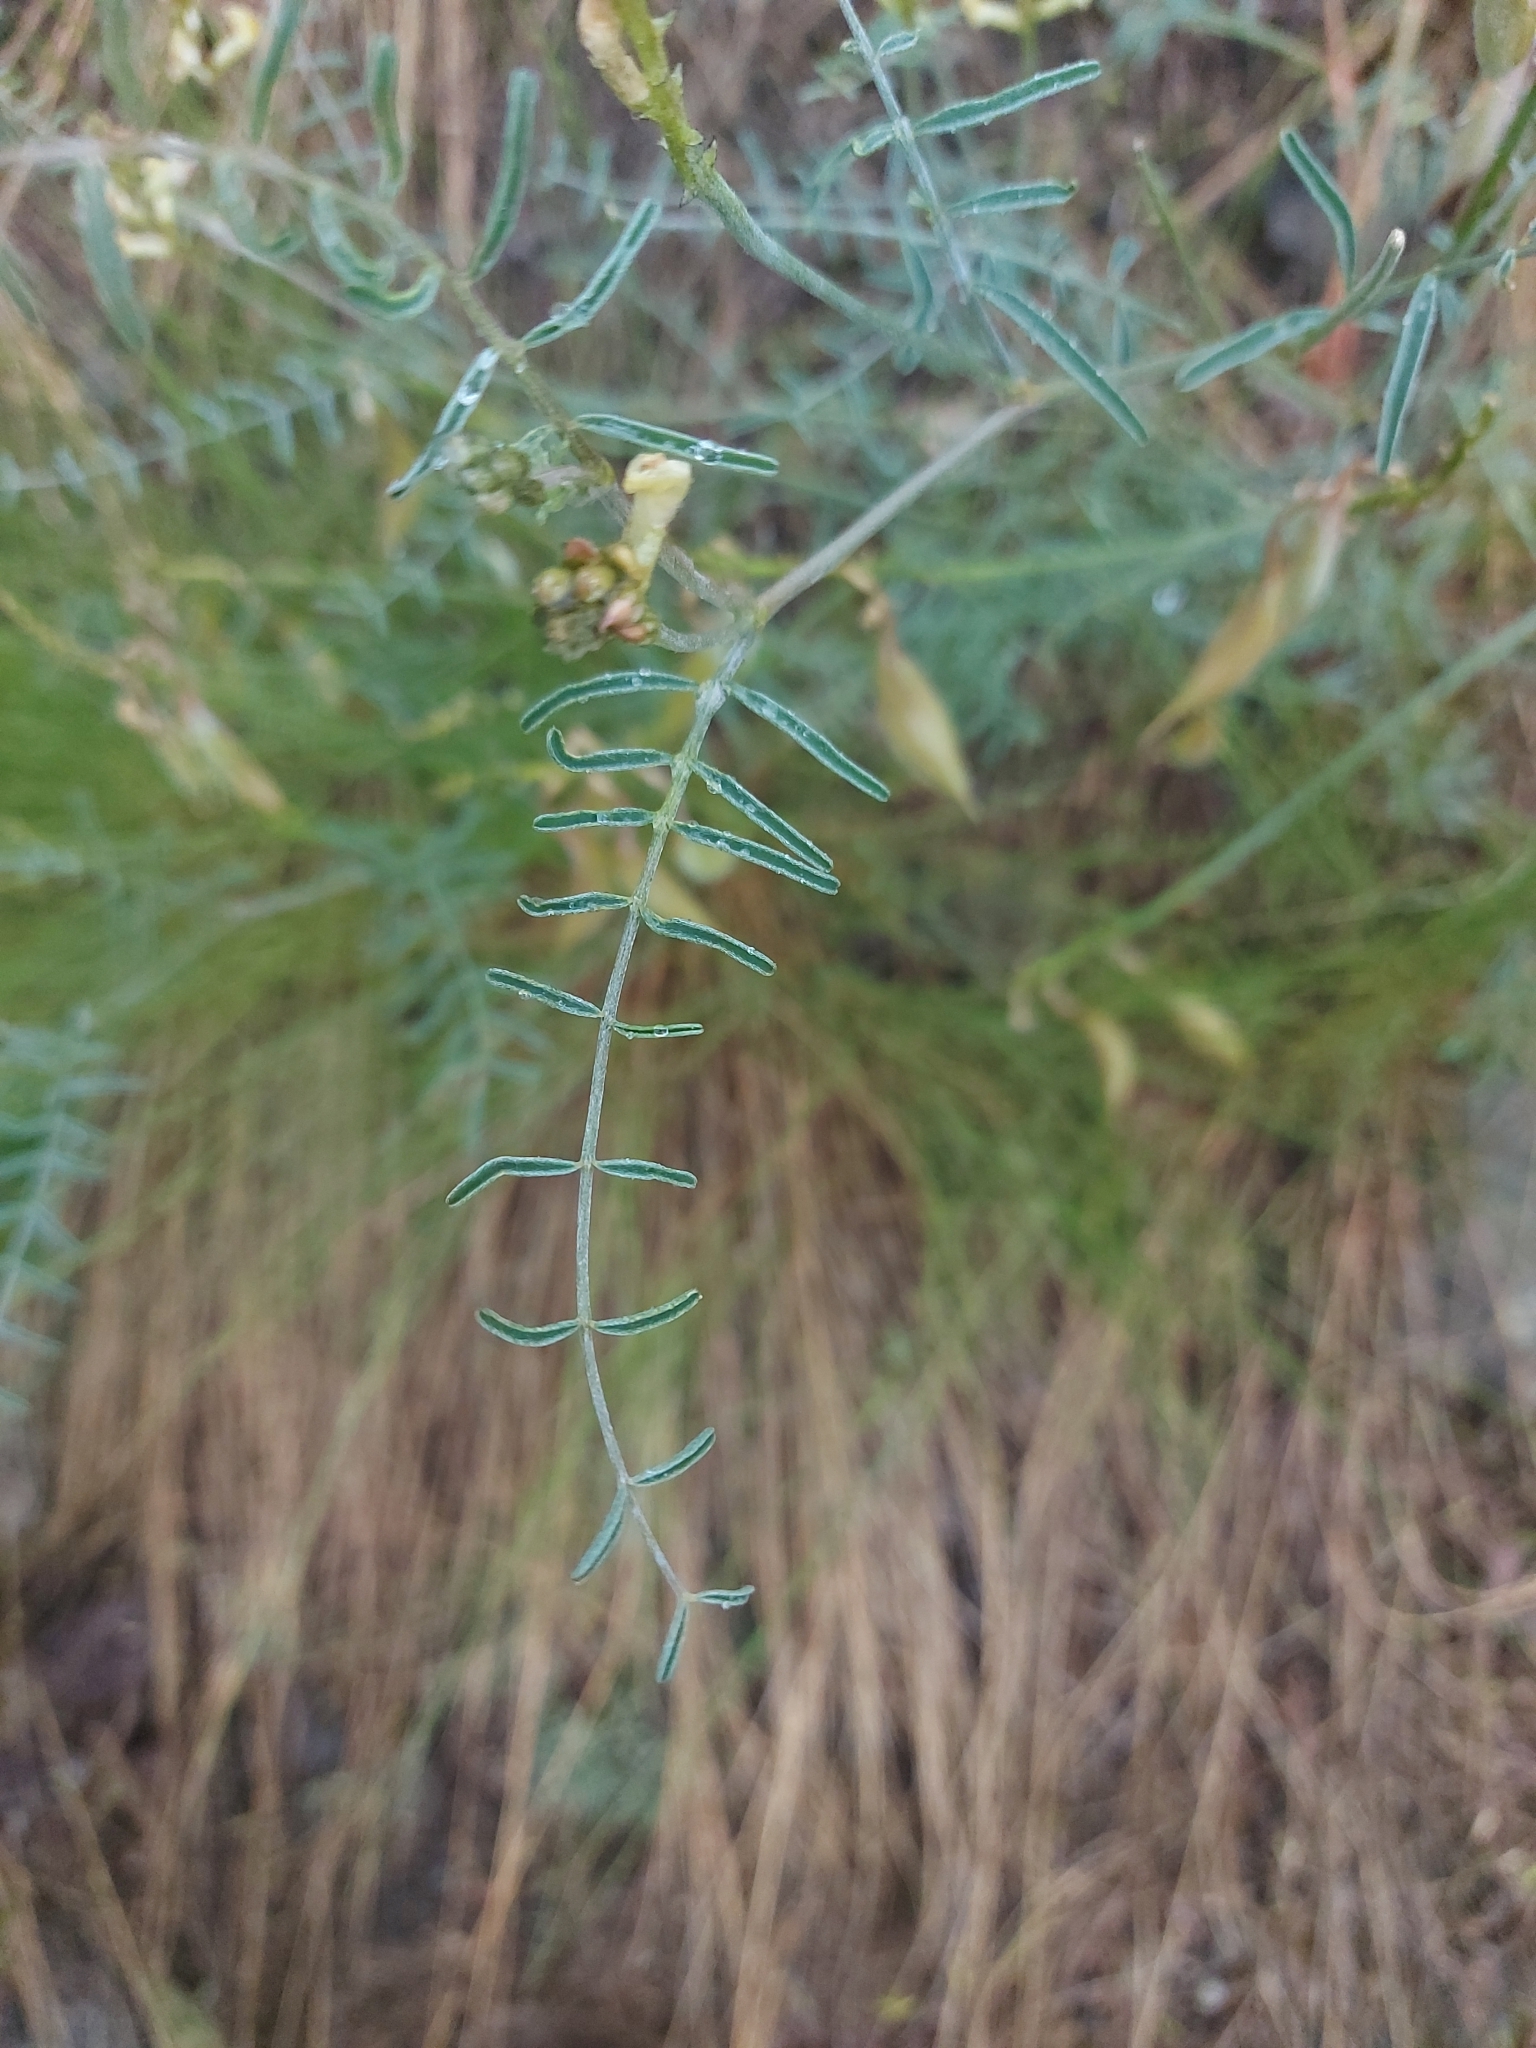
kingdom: Plantae
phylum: Tracheophyta
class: Magnoliopsida
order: Fabales
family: Fabaceae
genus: Astragalus
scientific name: Astragalus sclerocarpus
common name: The dalles milk-vetch
